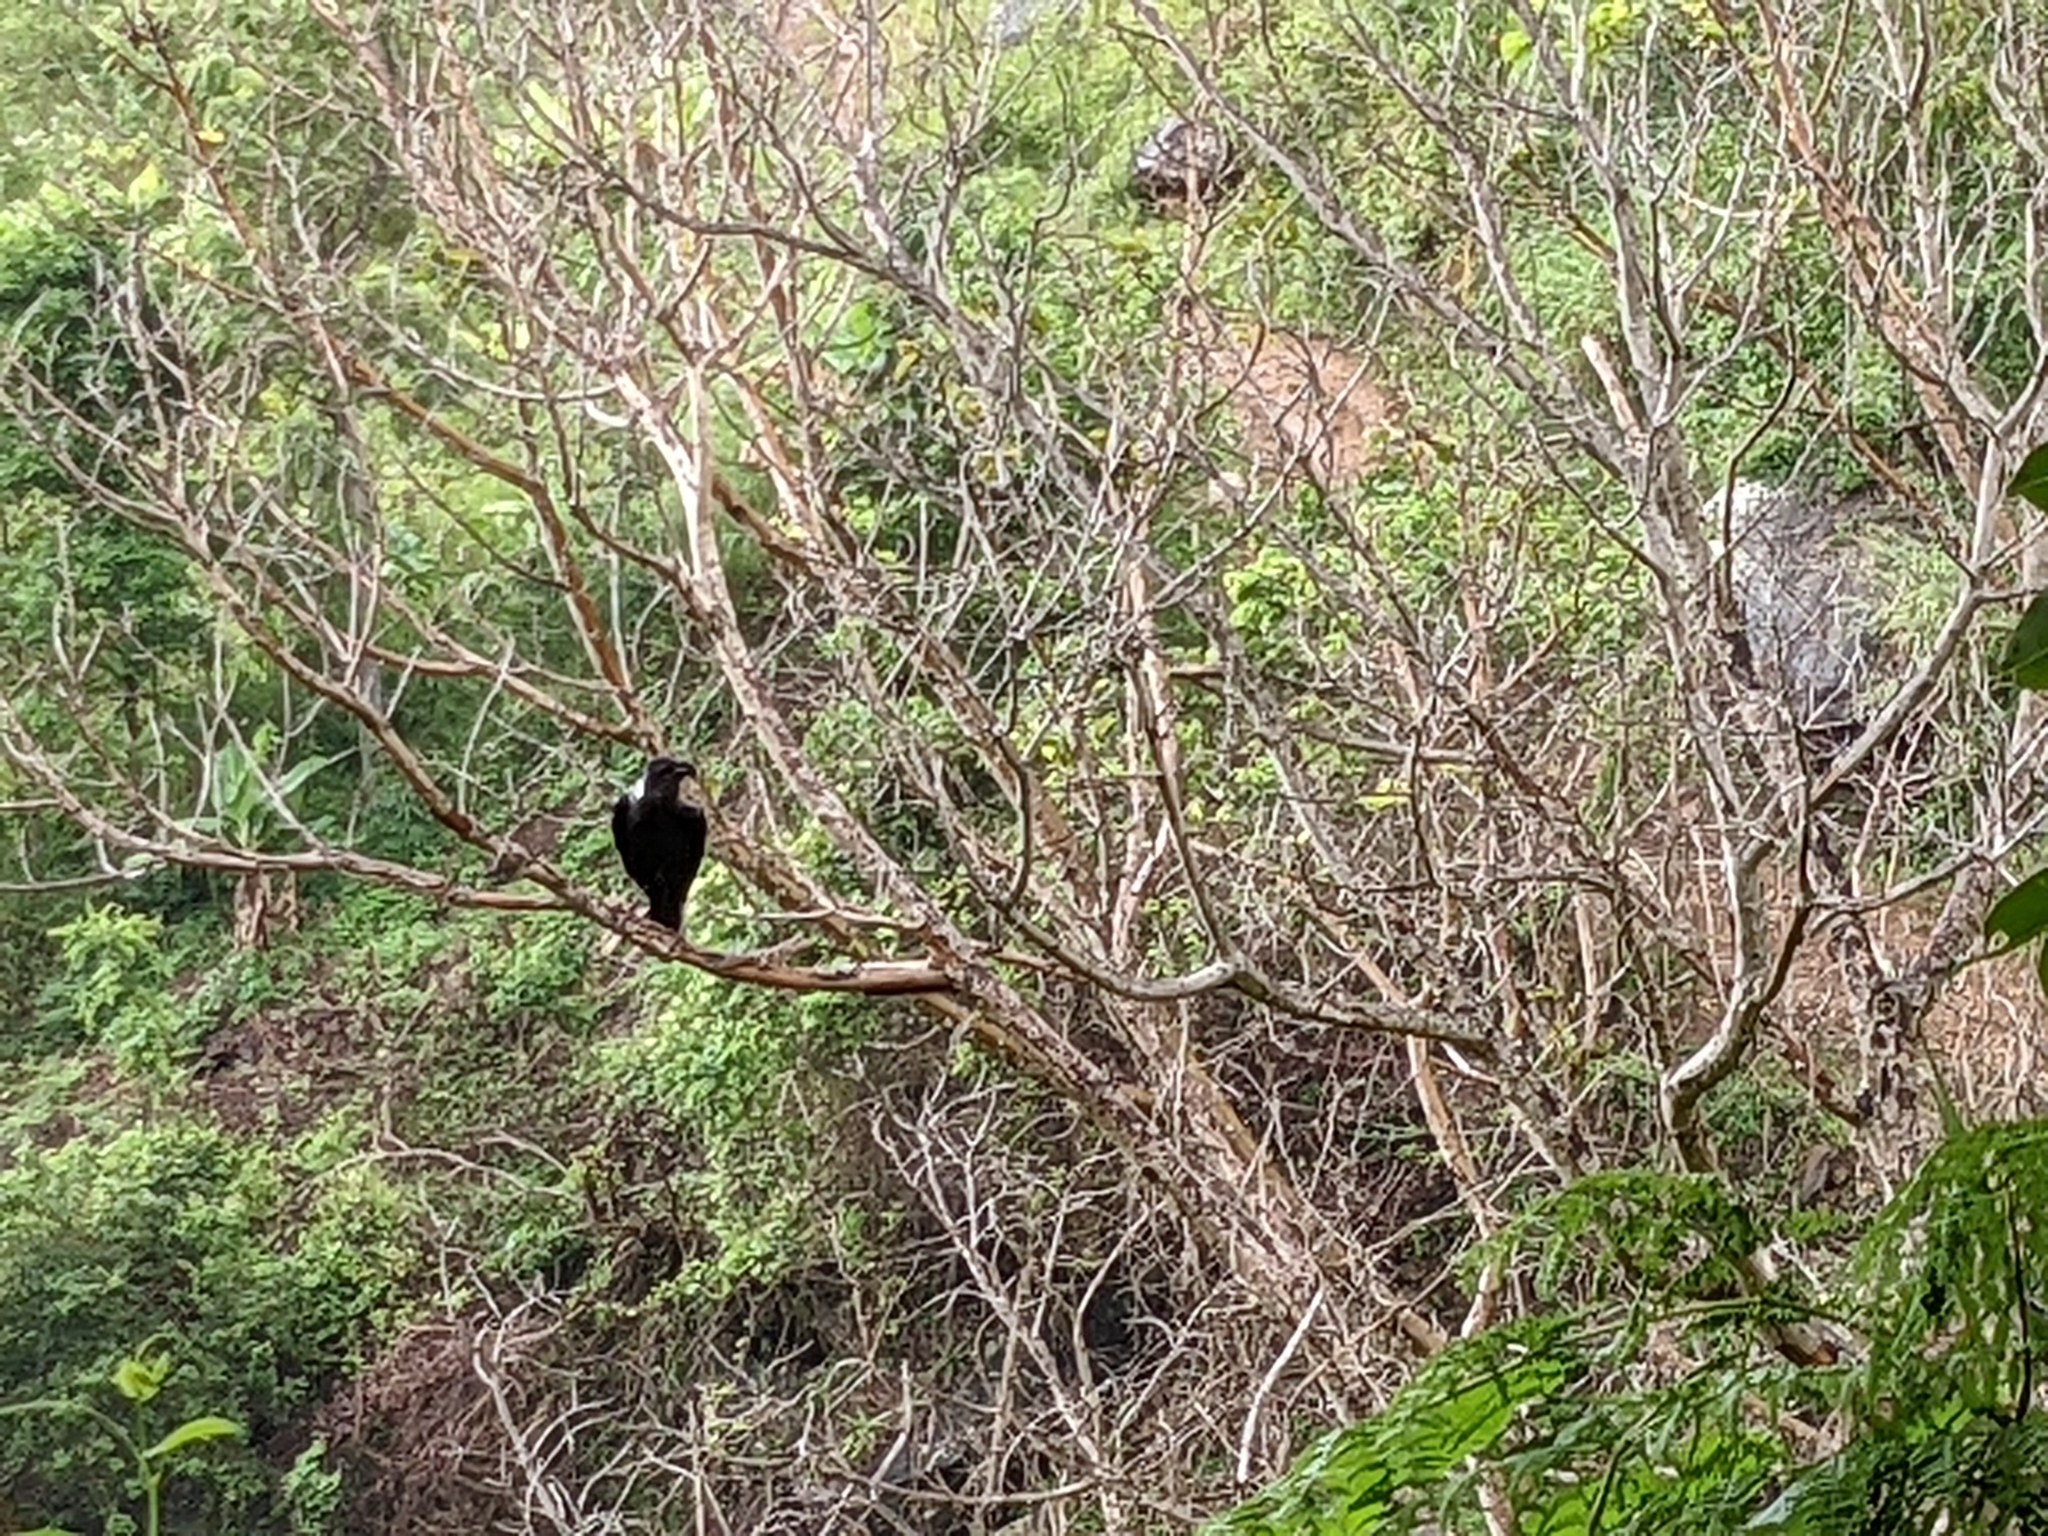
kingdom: Animalia
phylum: Chordata
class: Aves
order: Passeriformes
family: Corvidae
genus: Corvus
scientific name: Corvus albicollis
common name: White-necked raven
